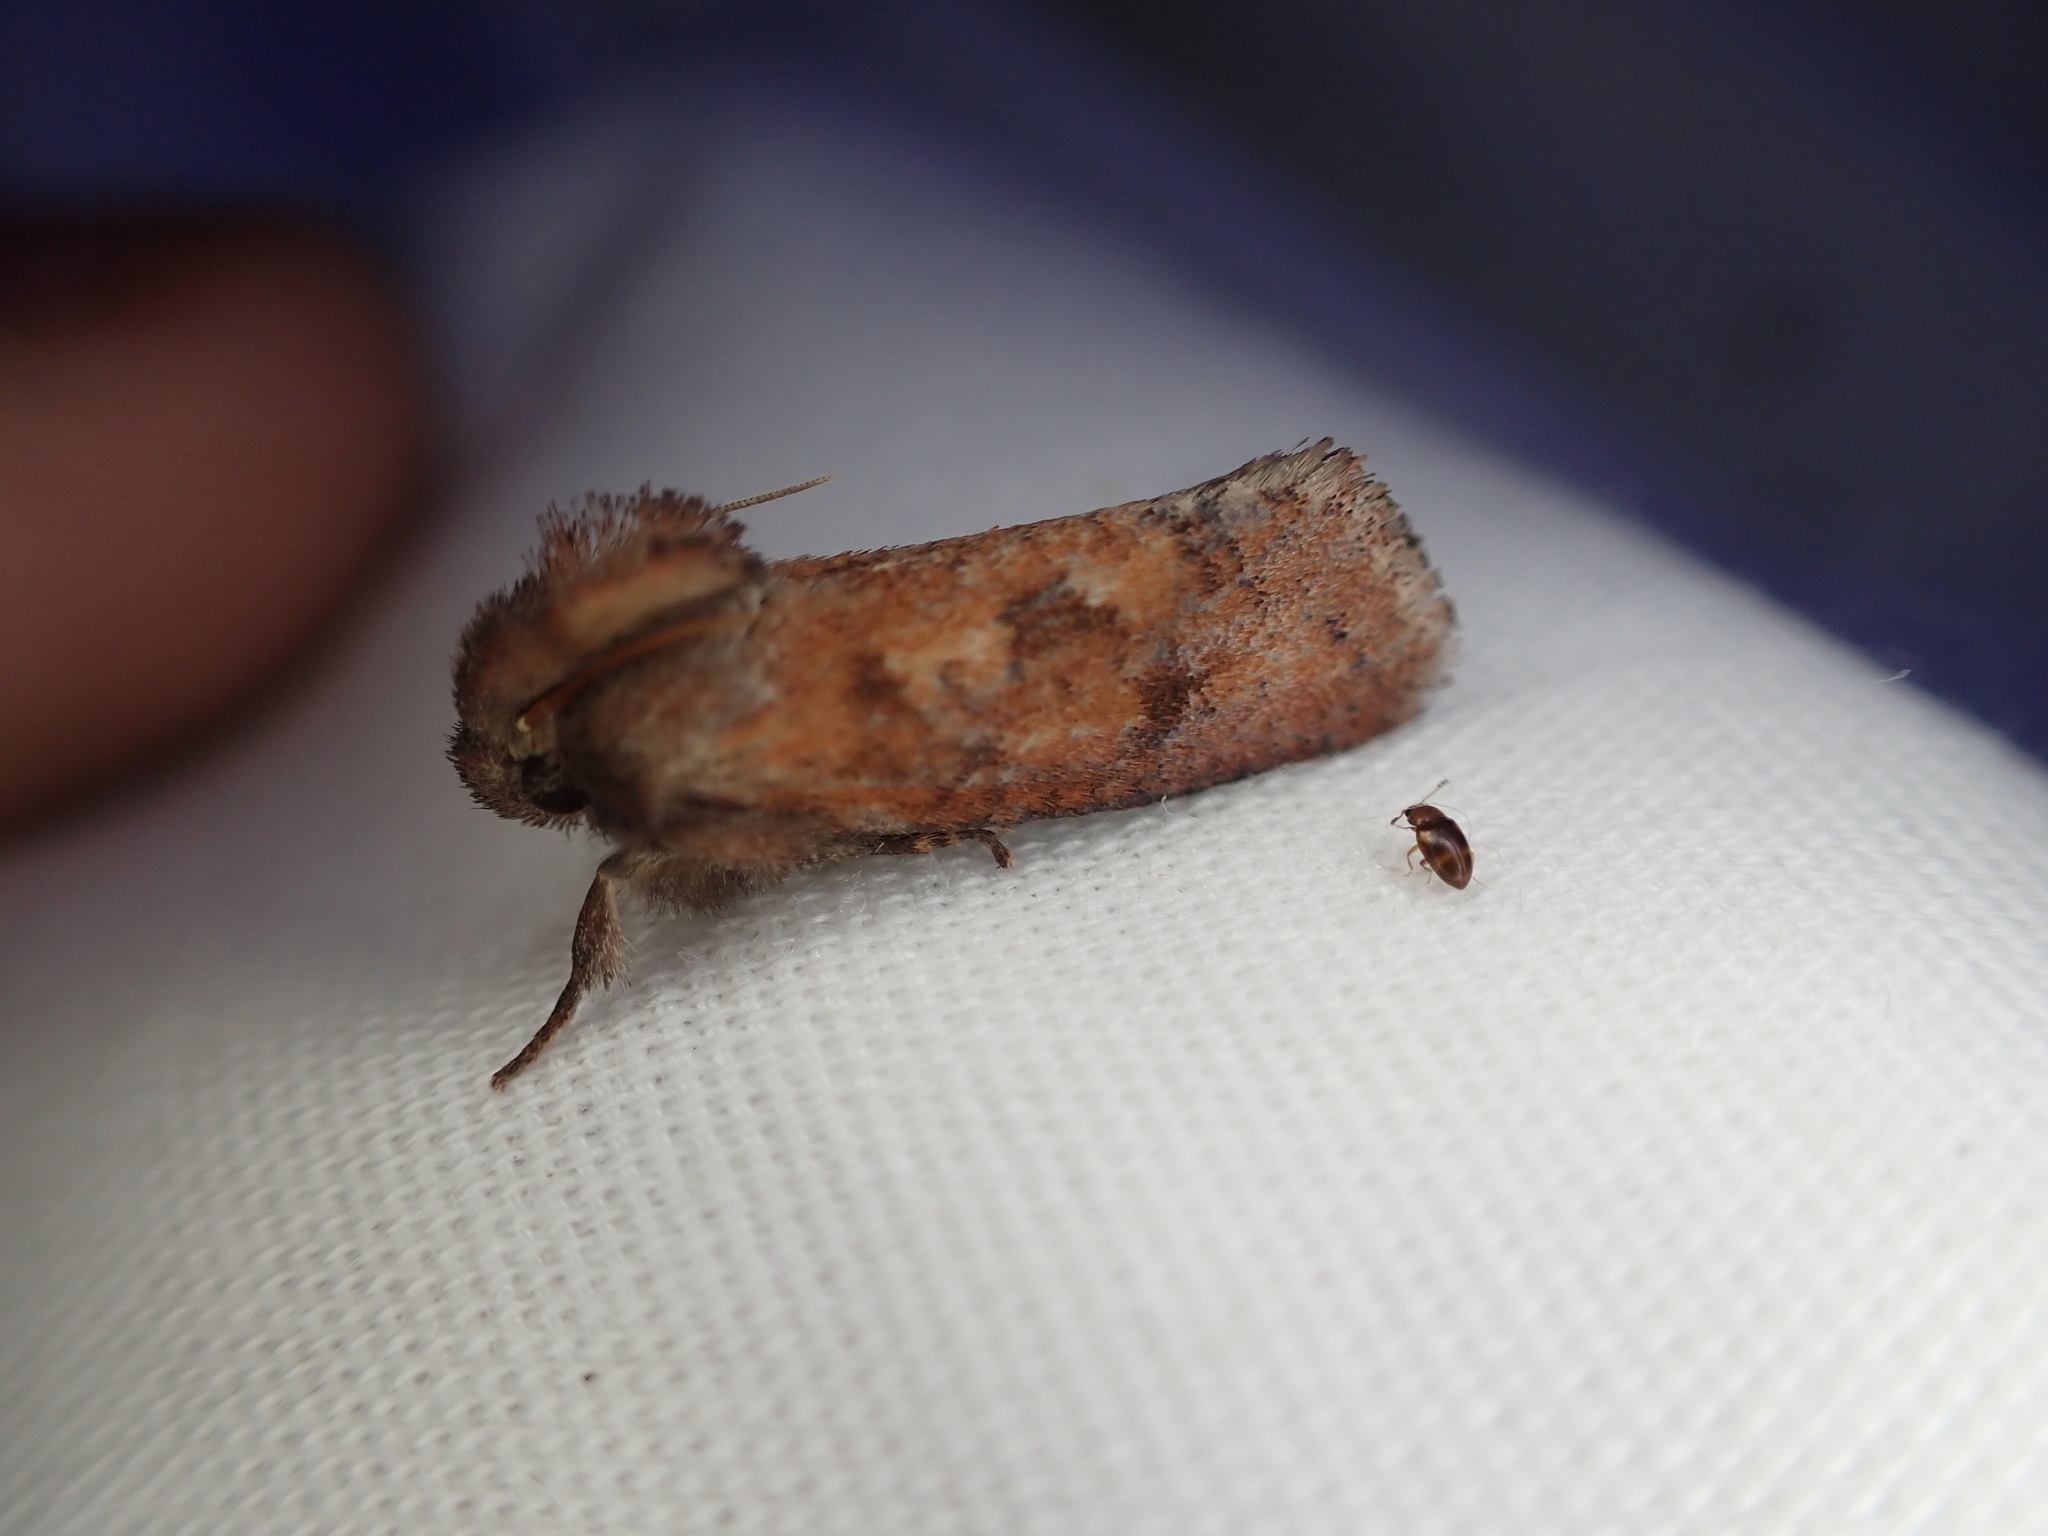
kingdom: Animalia
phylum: Arthropoda
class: Insecta
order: Lepidoptera
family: Tineidae
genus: Acrolophus
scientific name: Acrolophus plumifrontella
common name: Eastern grass tubeworm moth
